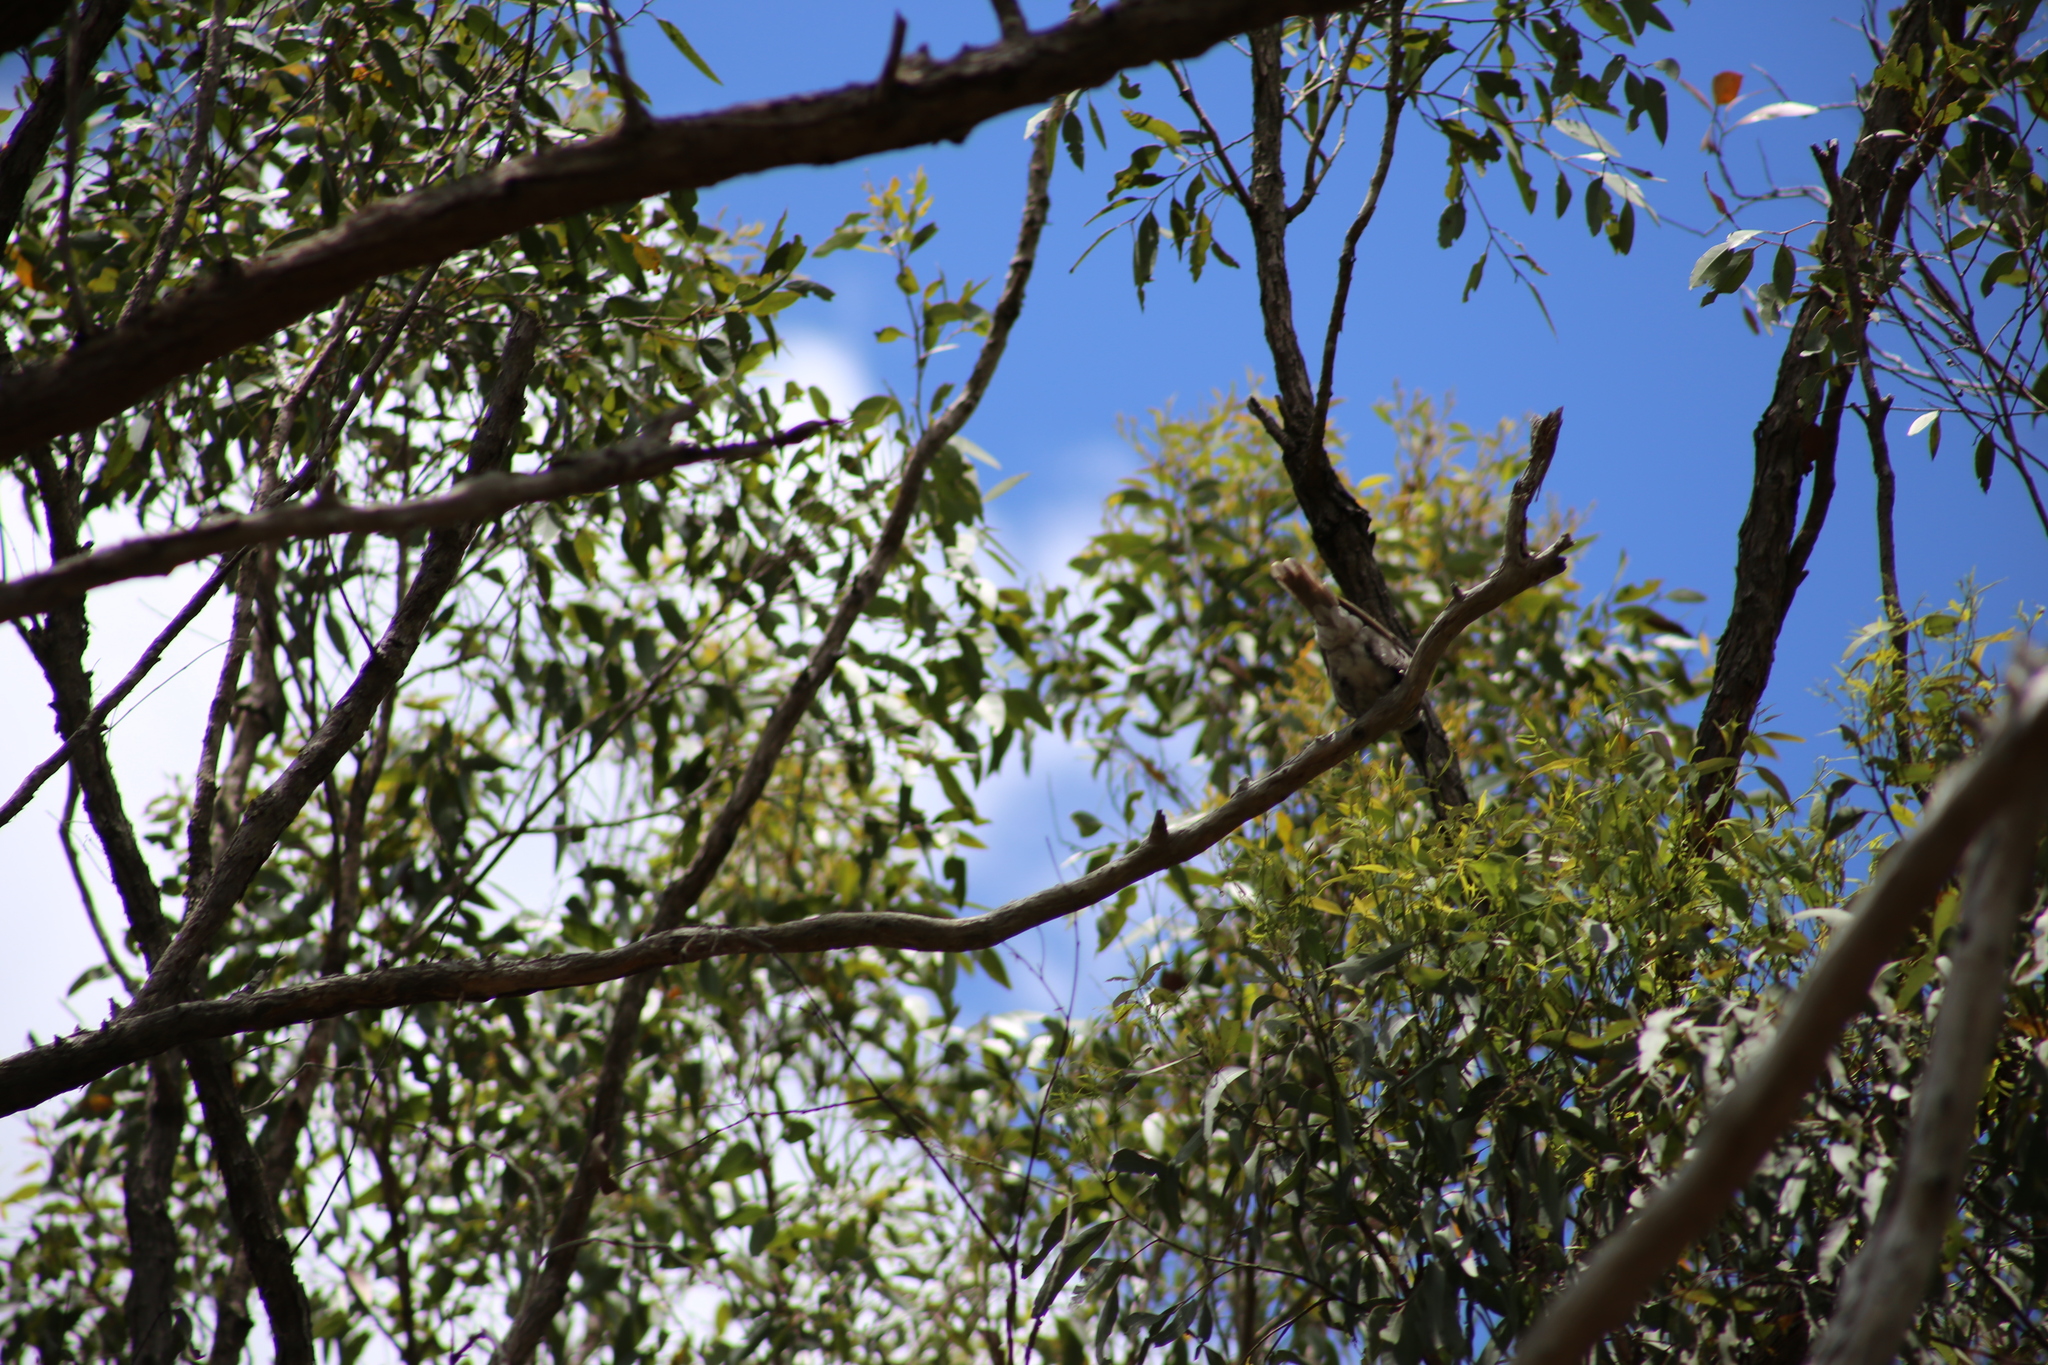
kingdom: Animalia
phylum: Chordata
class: Aves
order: Passeriformes
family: Meliphagidae
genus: Philemon
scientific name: Philemon corniculatus
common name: Noisy friarbird
